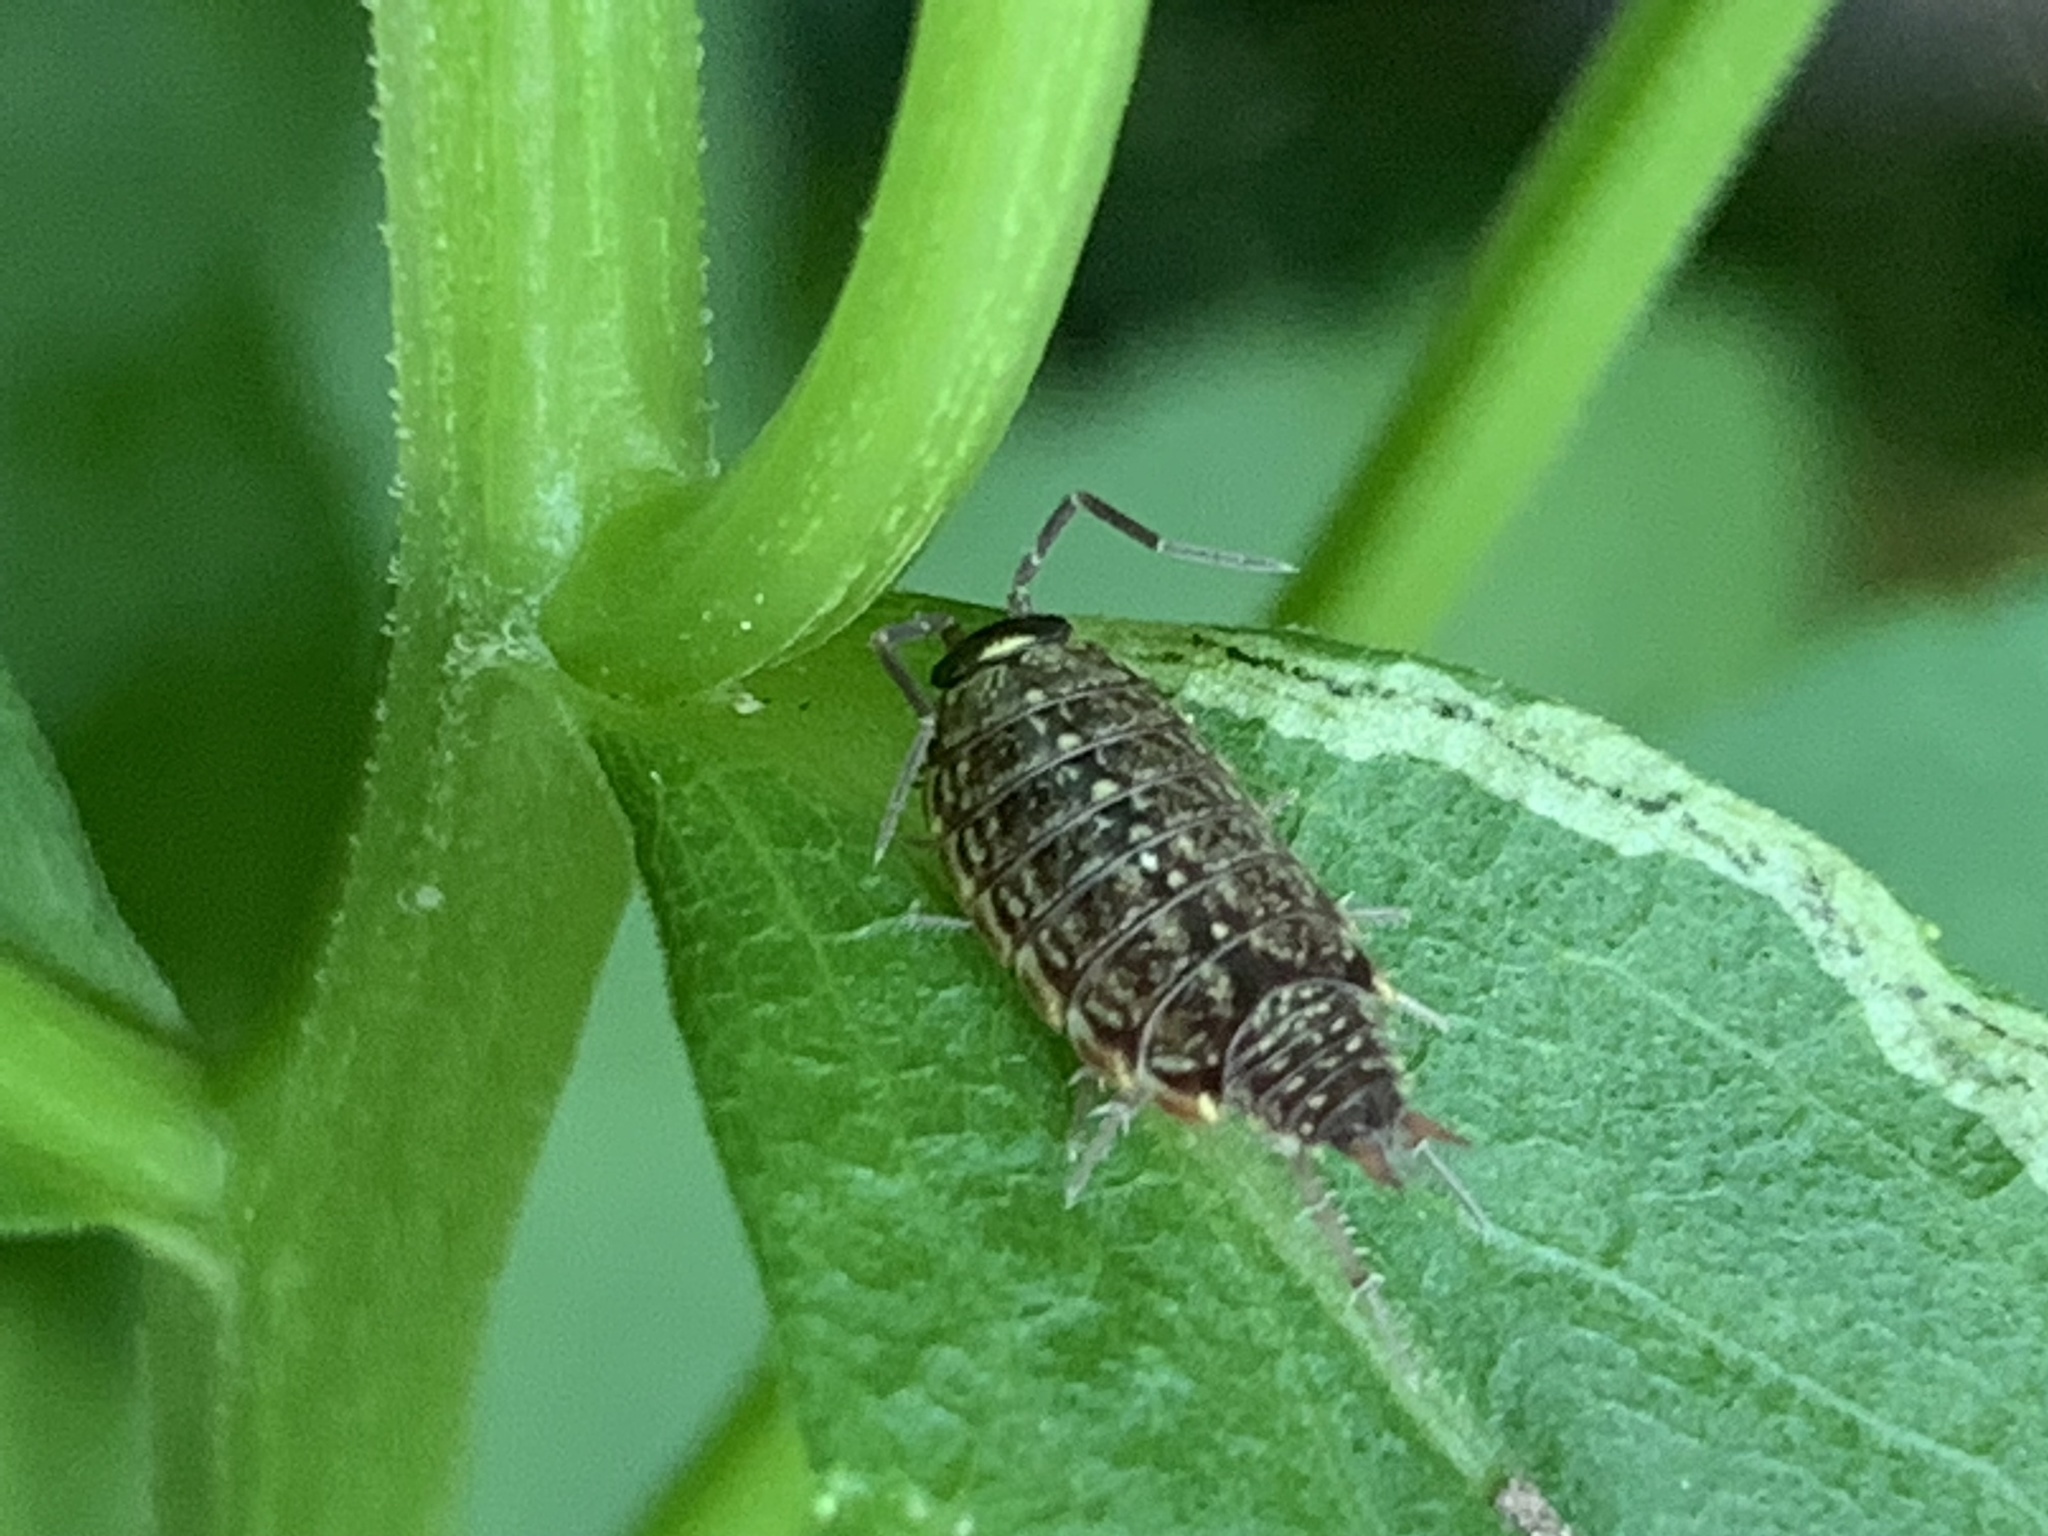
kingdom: Animalia
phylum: Arthropoda
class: Malacostraca
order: Isopoda
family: Philosciidae
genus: Philoscia
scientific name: Philoscia muscorum
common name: Common striped woodlouse
